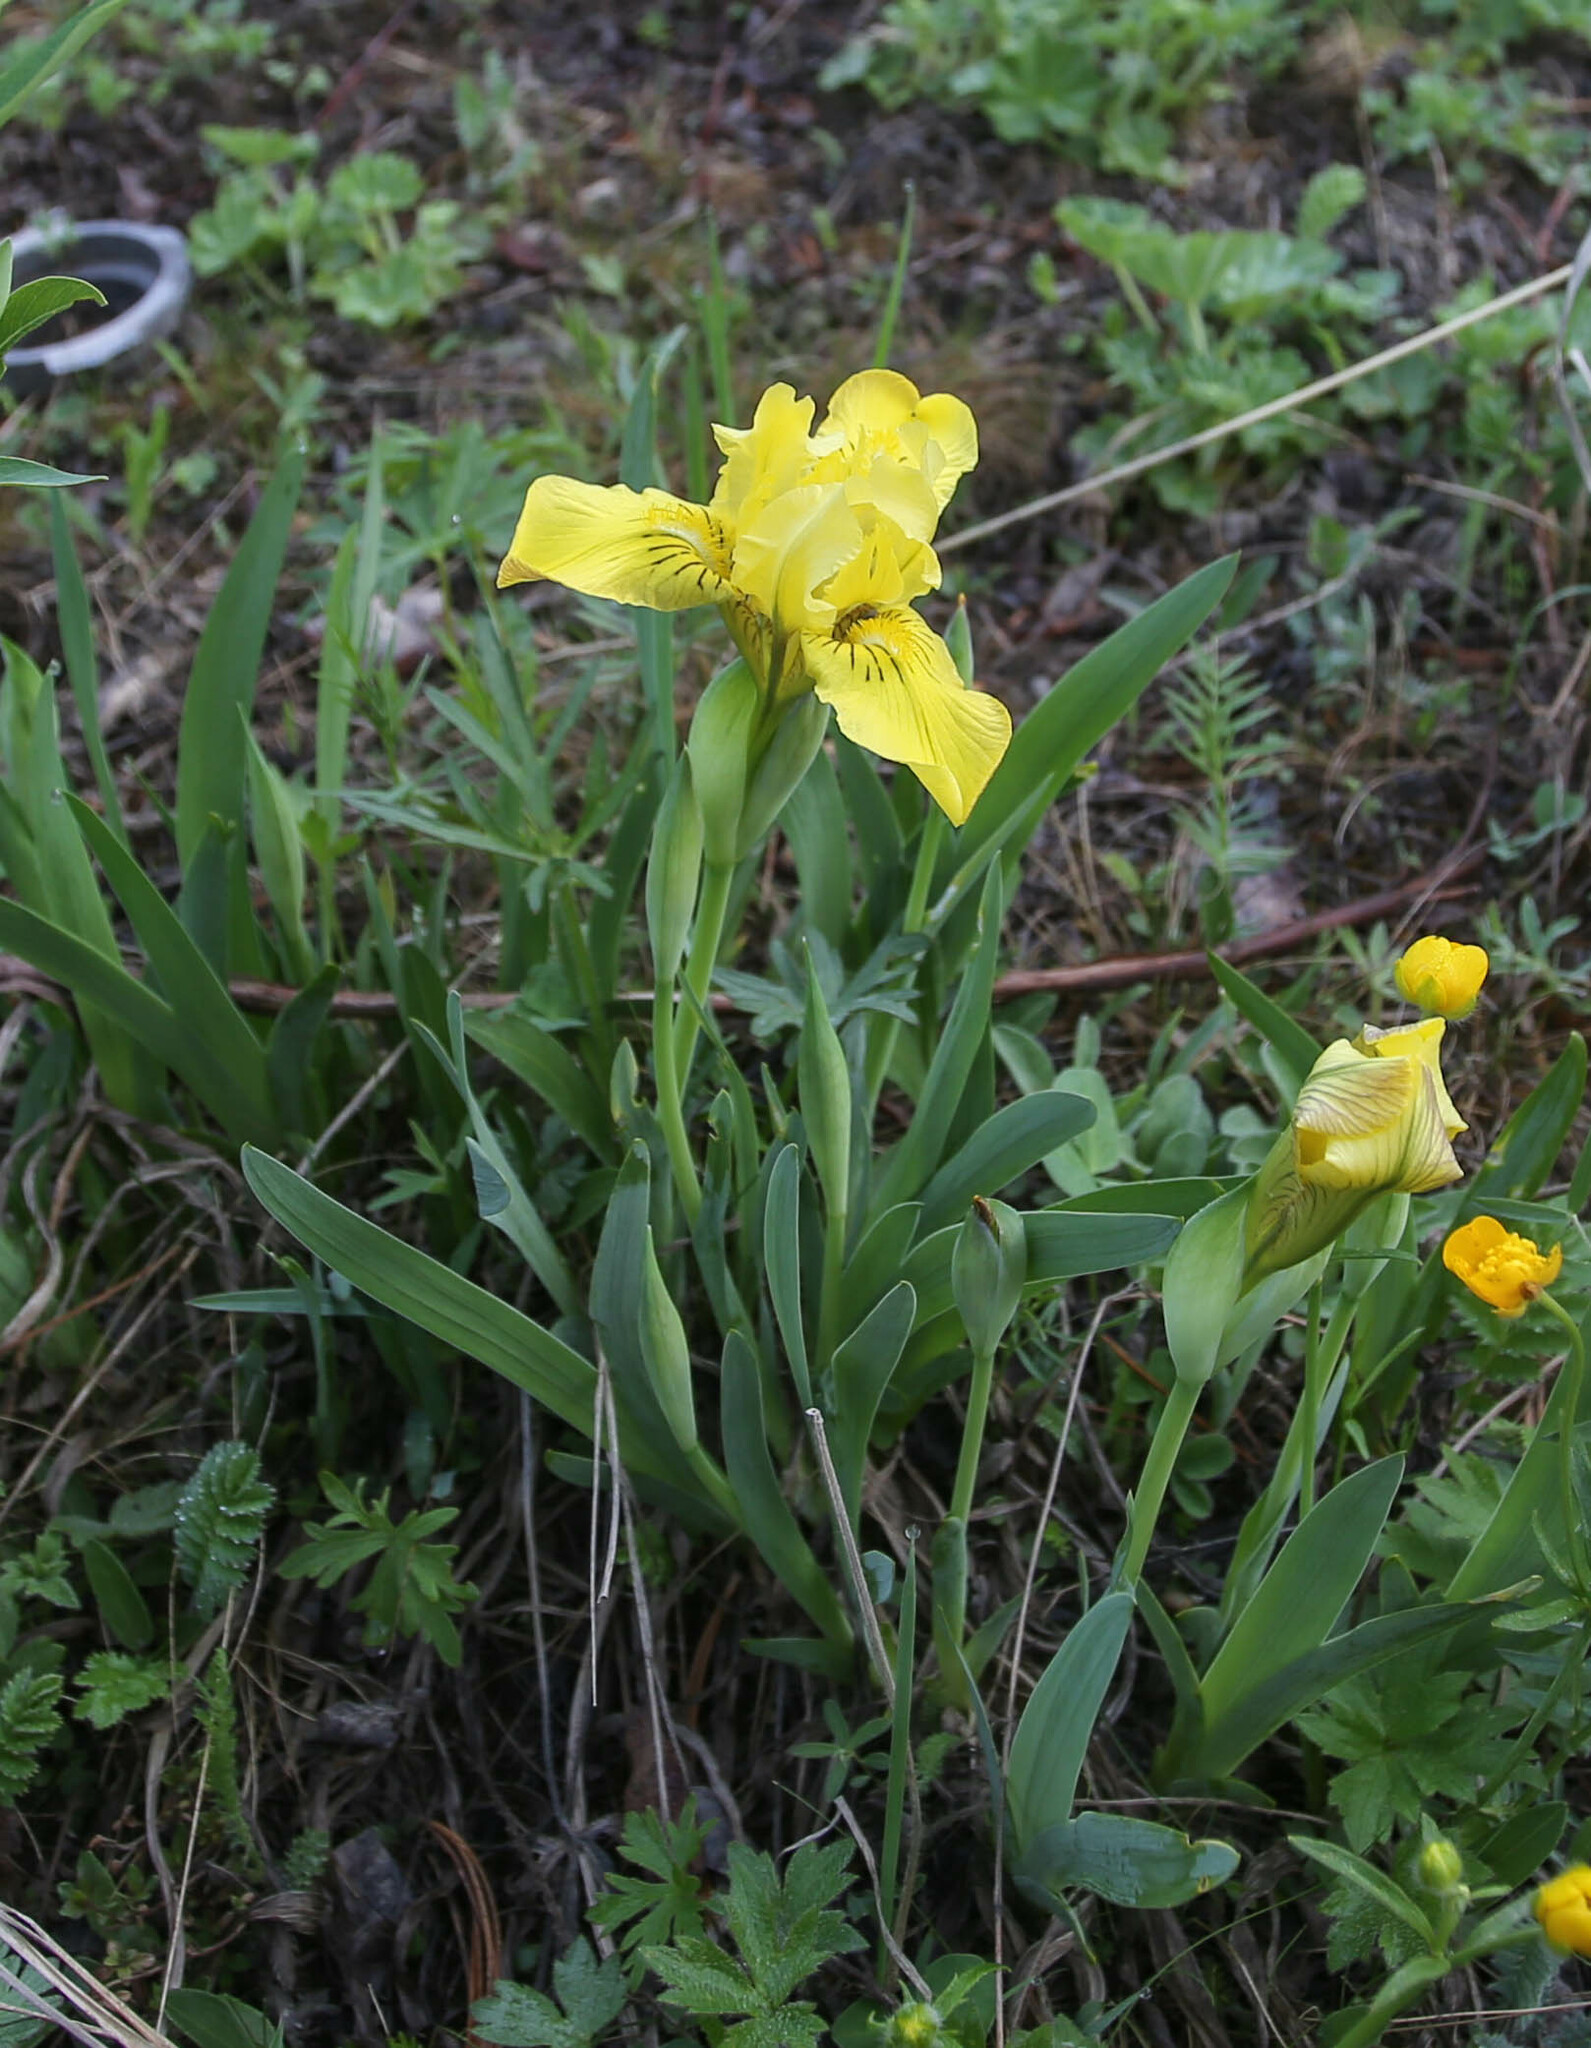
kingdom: Plantae
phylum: Tracheophyta
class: Liliopsida
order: Asparagales
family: Iridaceae
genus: Iris
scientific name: Iris bloudowii
